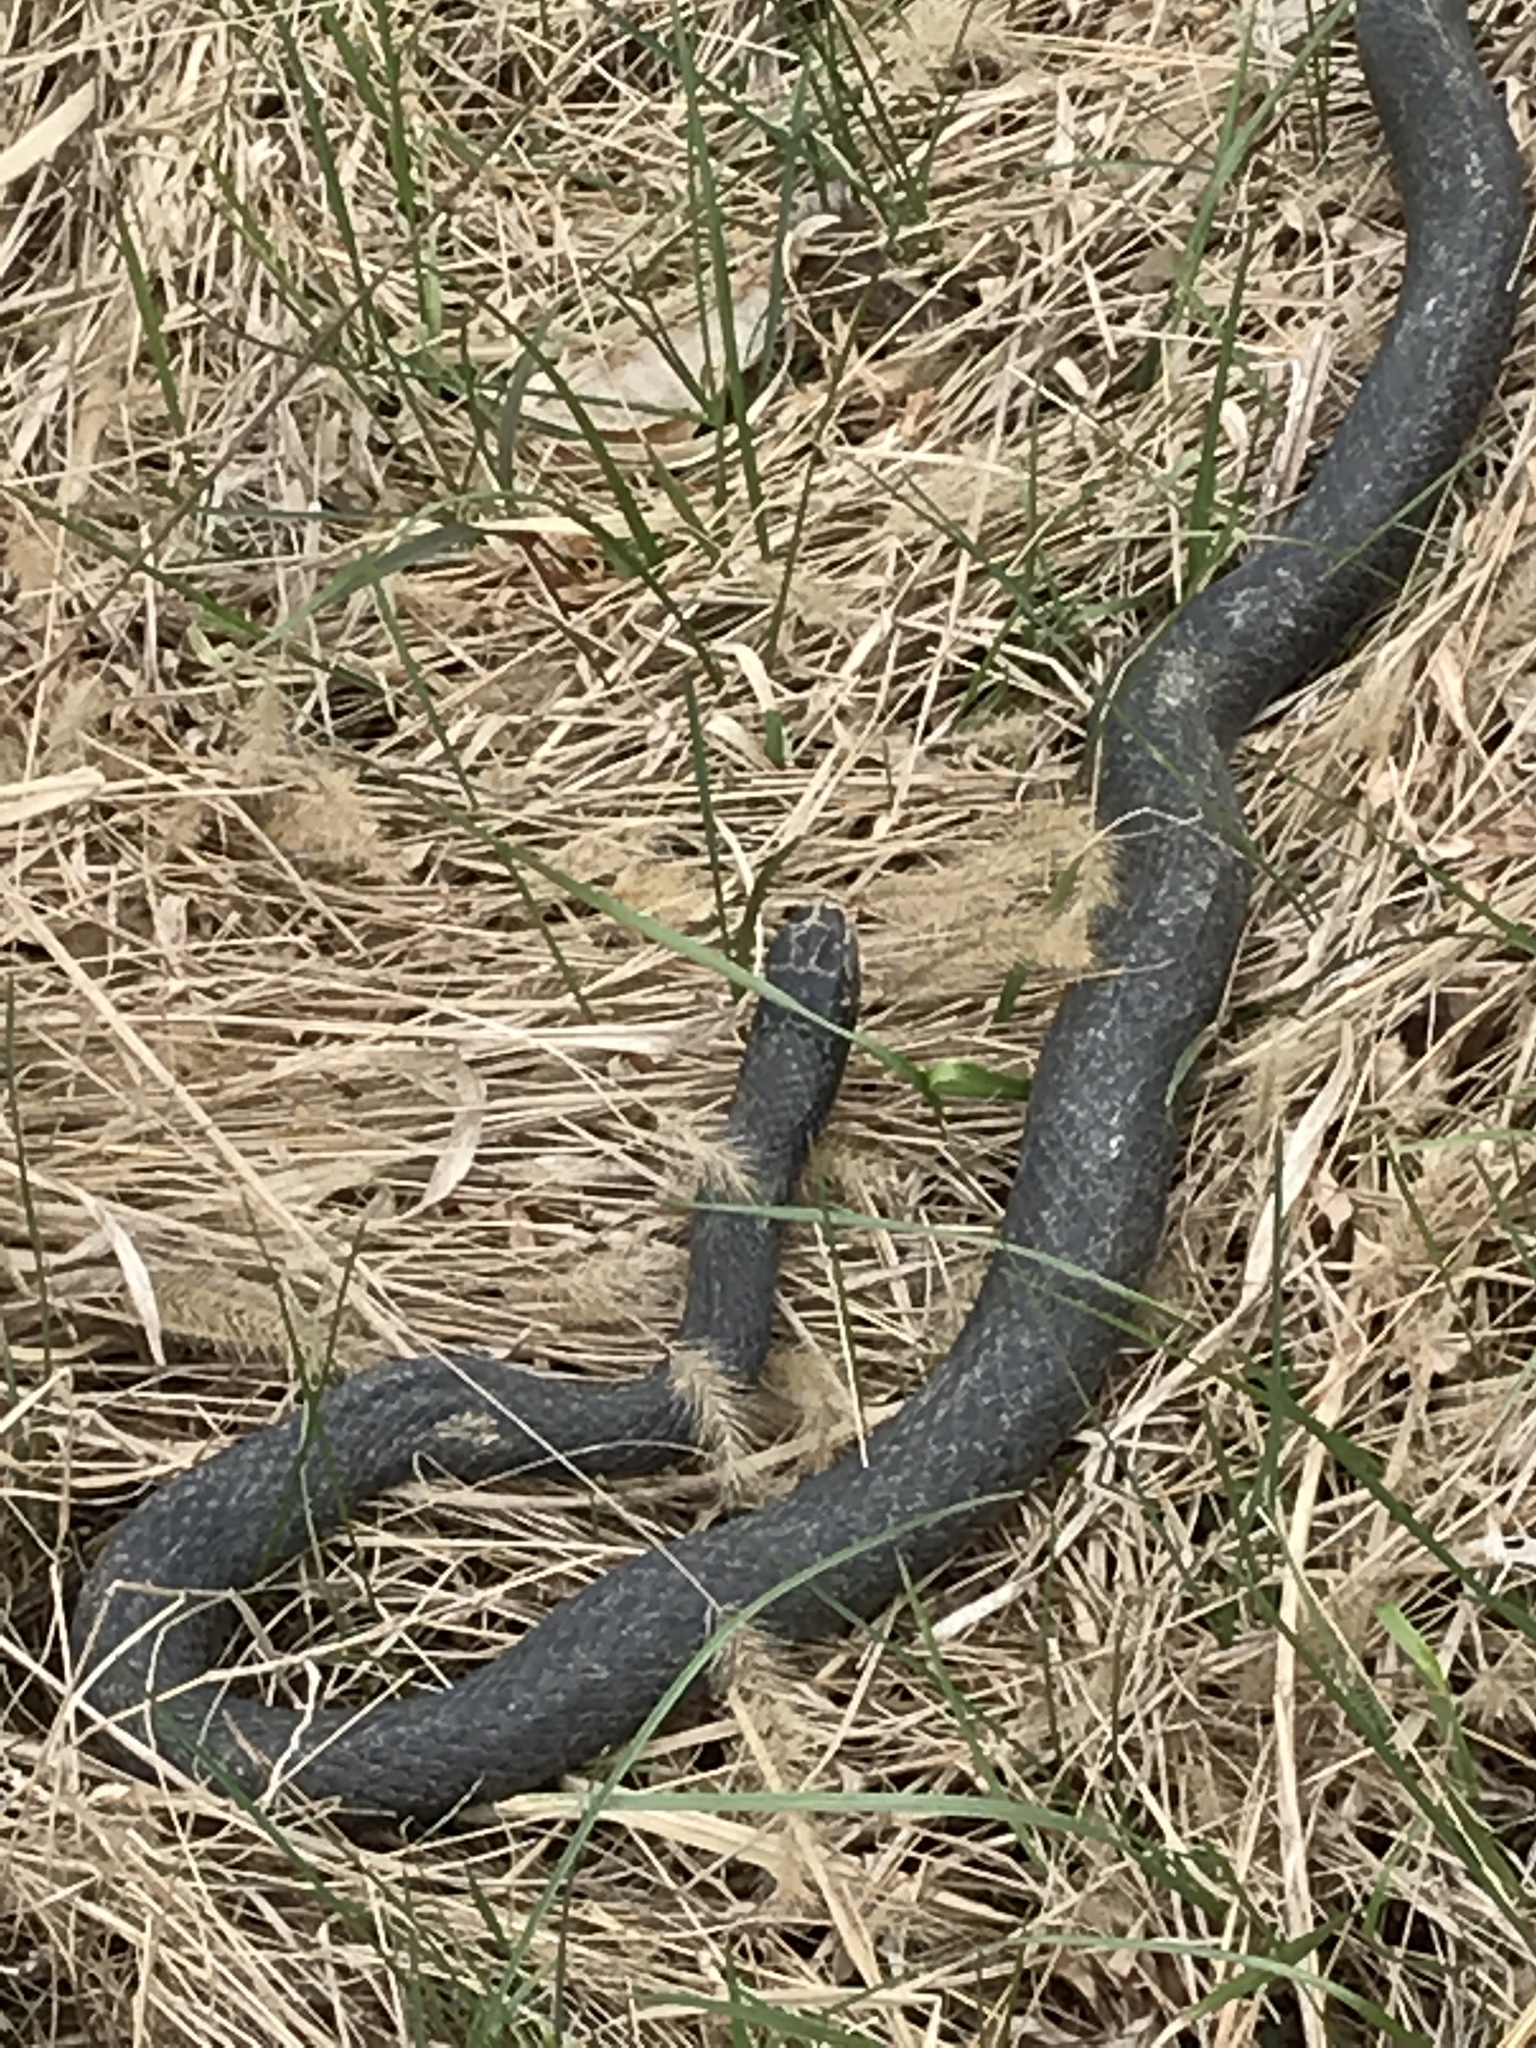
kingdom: Animalia
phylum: Chordata
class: Squamata
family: Colubridae
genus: Coluber
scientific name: Coluber constrictor
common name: Eastern racer
